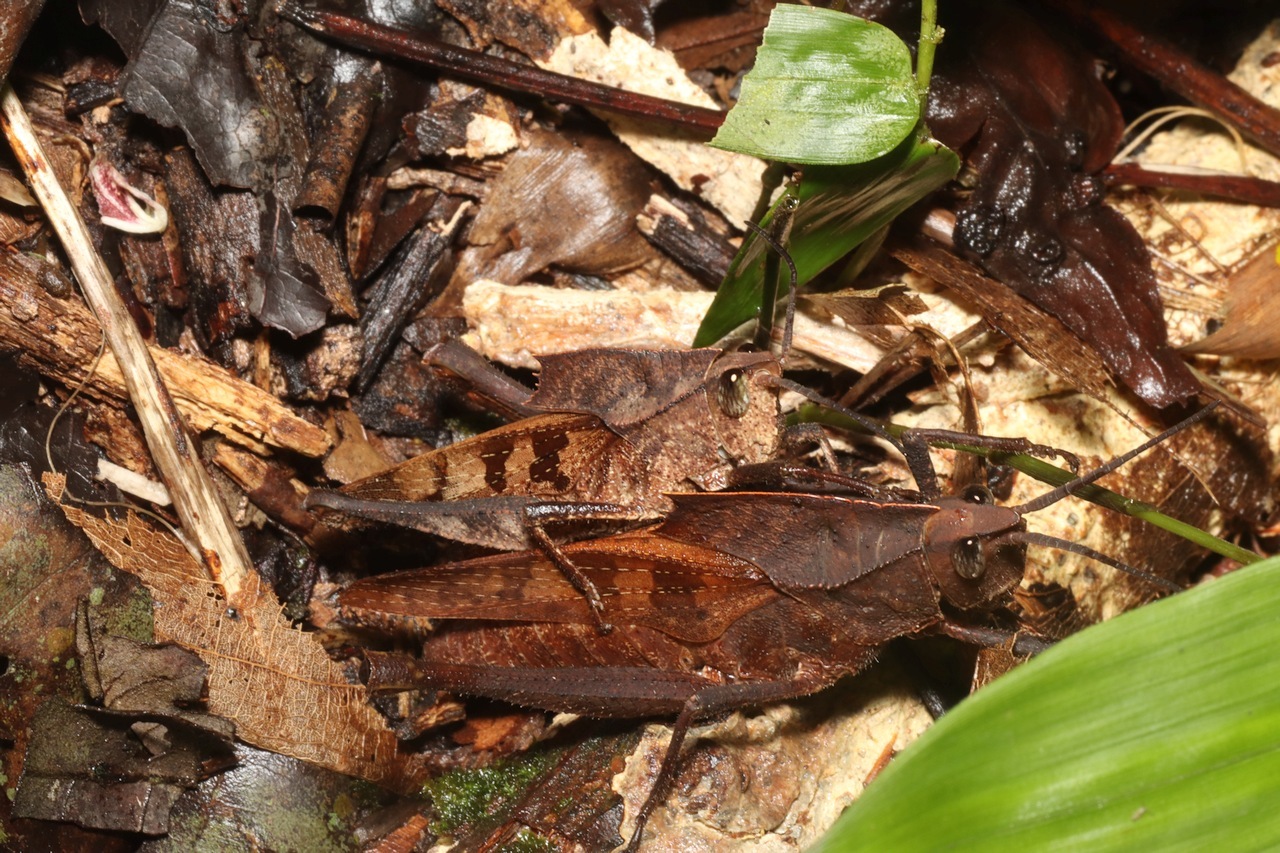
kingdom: Animalia
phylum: Arthropoda
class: Insecta
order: Orthoptera
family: Romaleidae
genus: Colpolopha
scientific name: Colpolopha praemorsa
